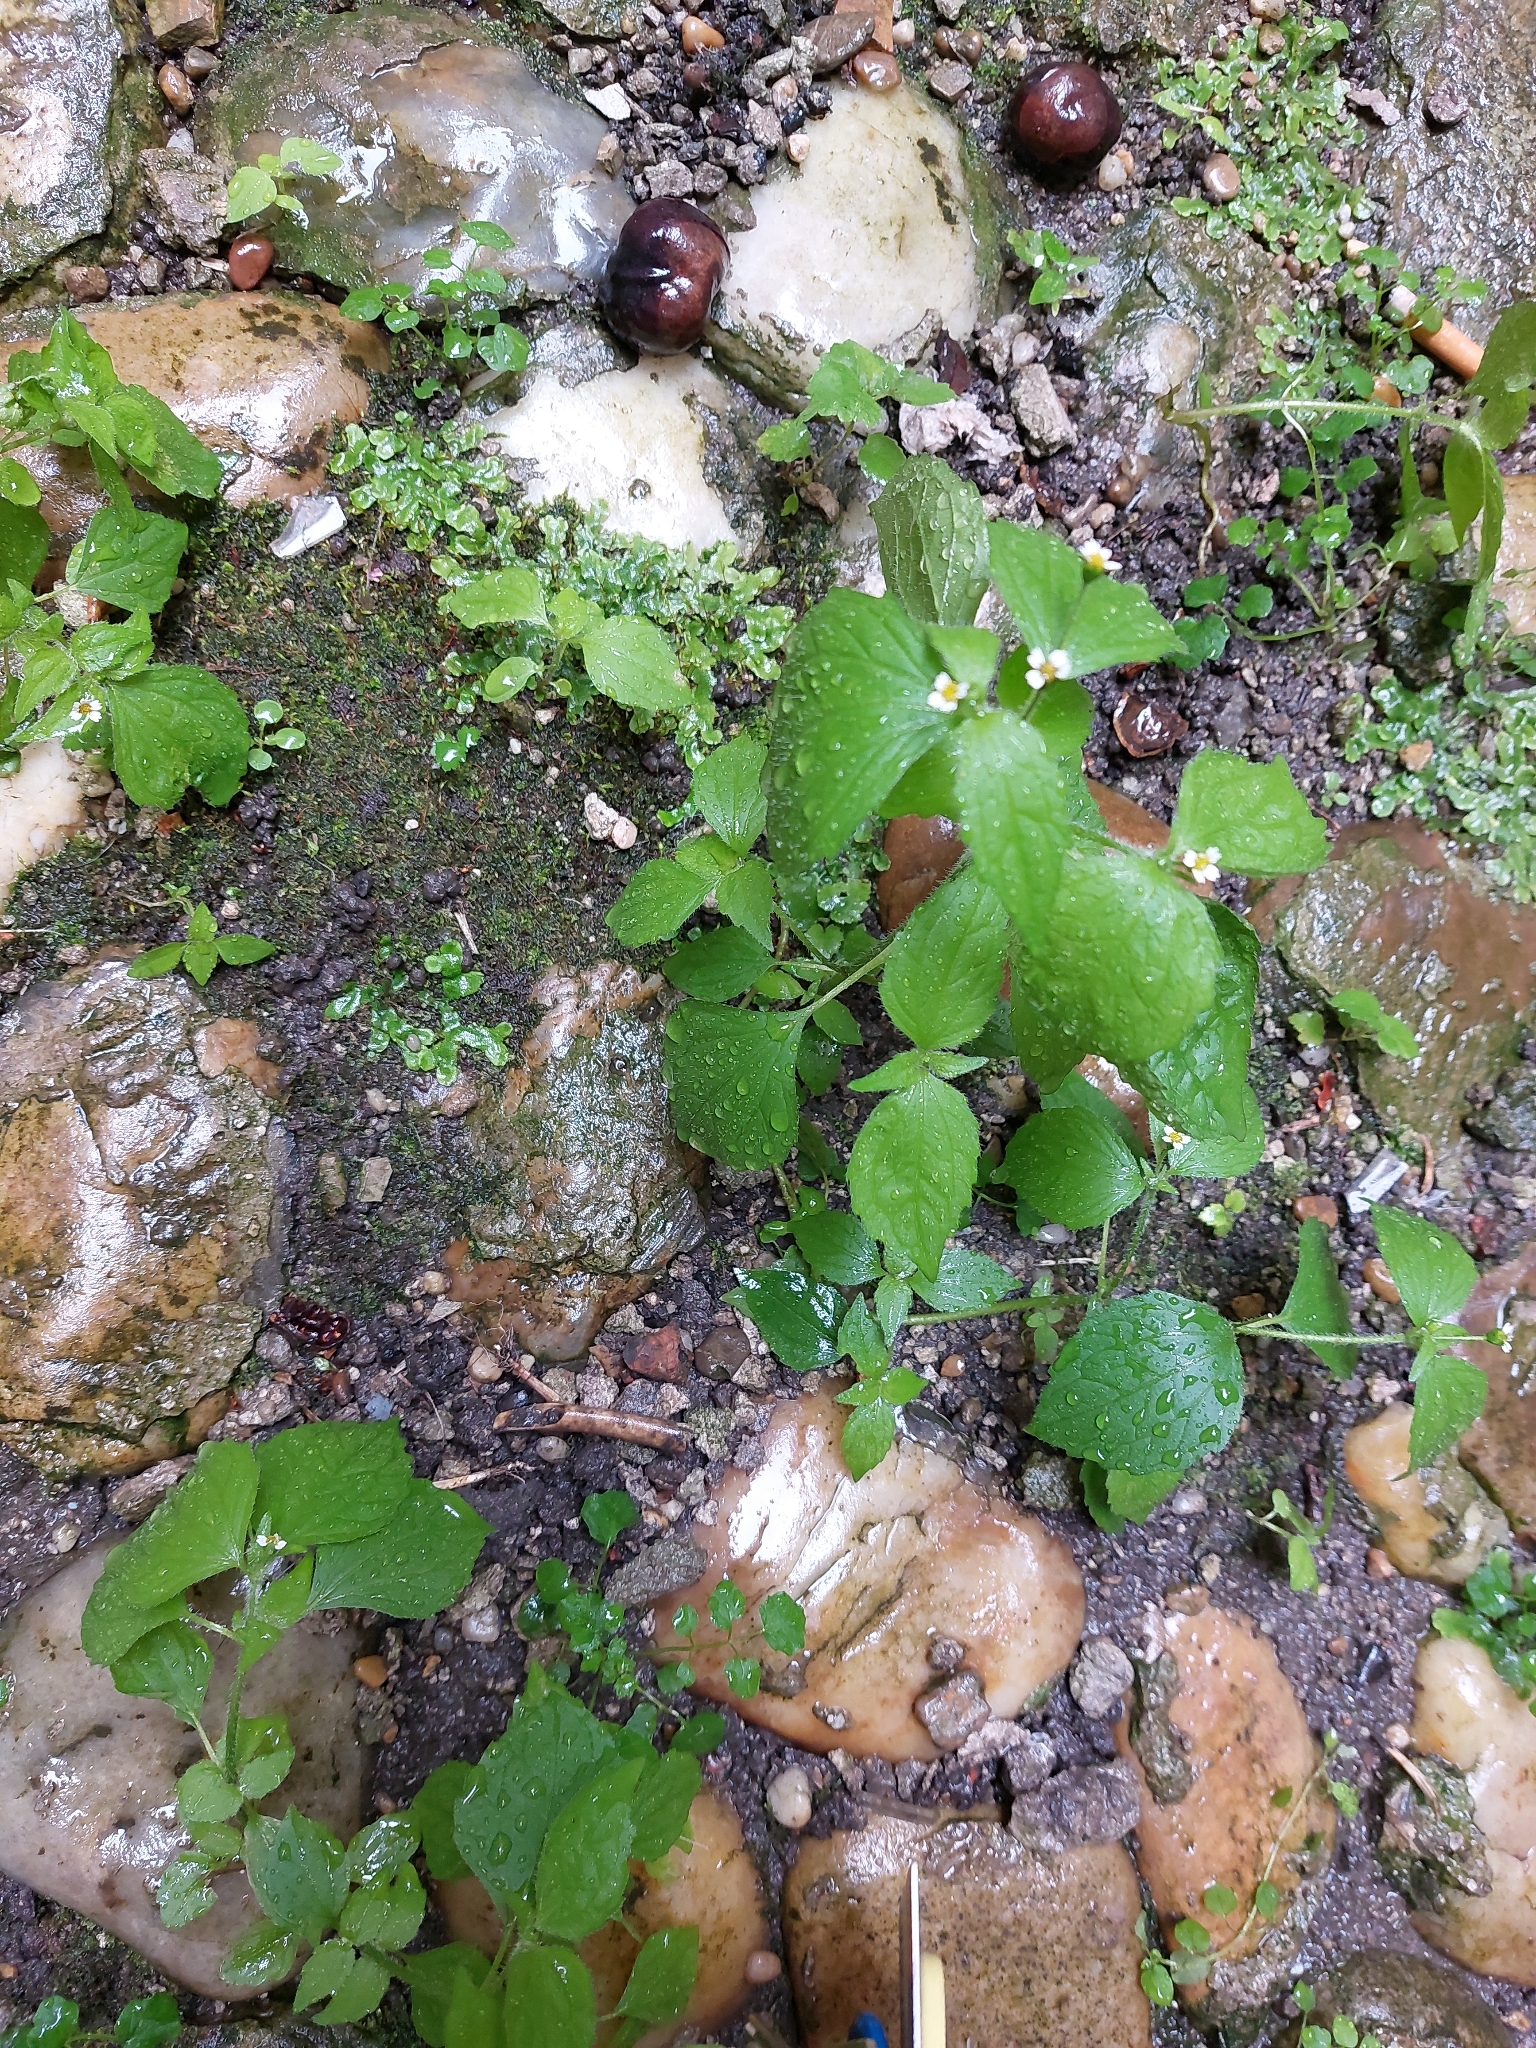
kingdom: Plantae
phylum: Tracheophyta
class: Magnoliopsida
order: Asterales
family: Asteraceae
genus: Galinsoga
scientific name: Galinsoga quadriradiata
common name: Shaggy soldier
